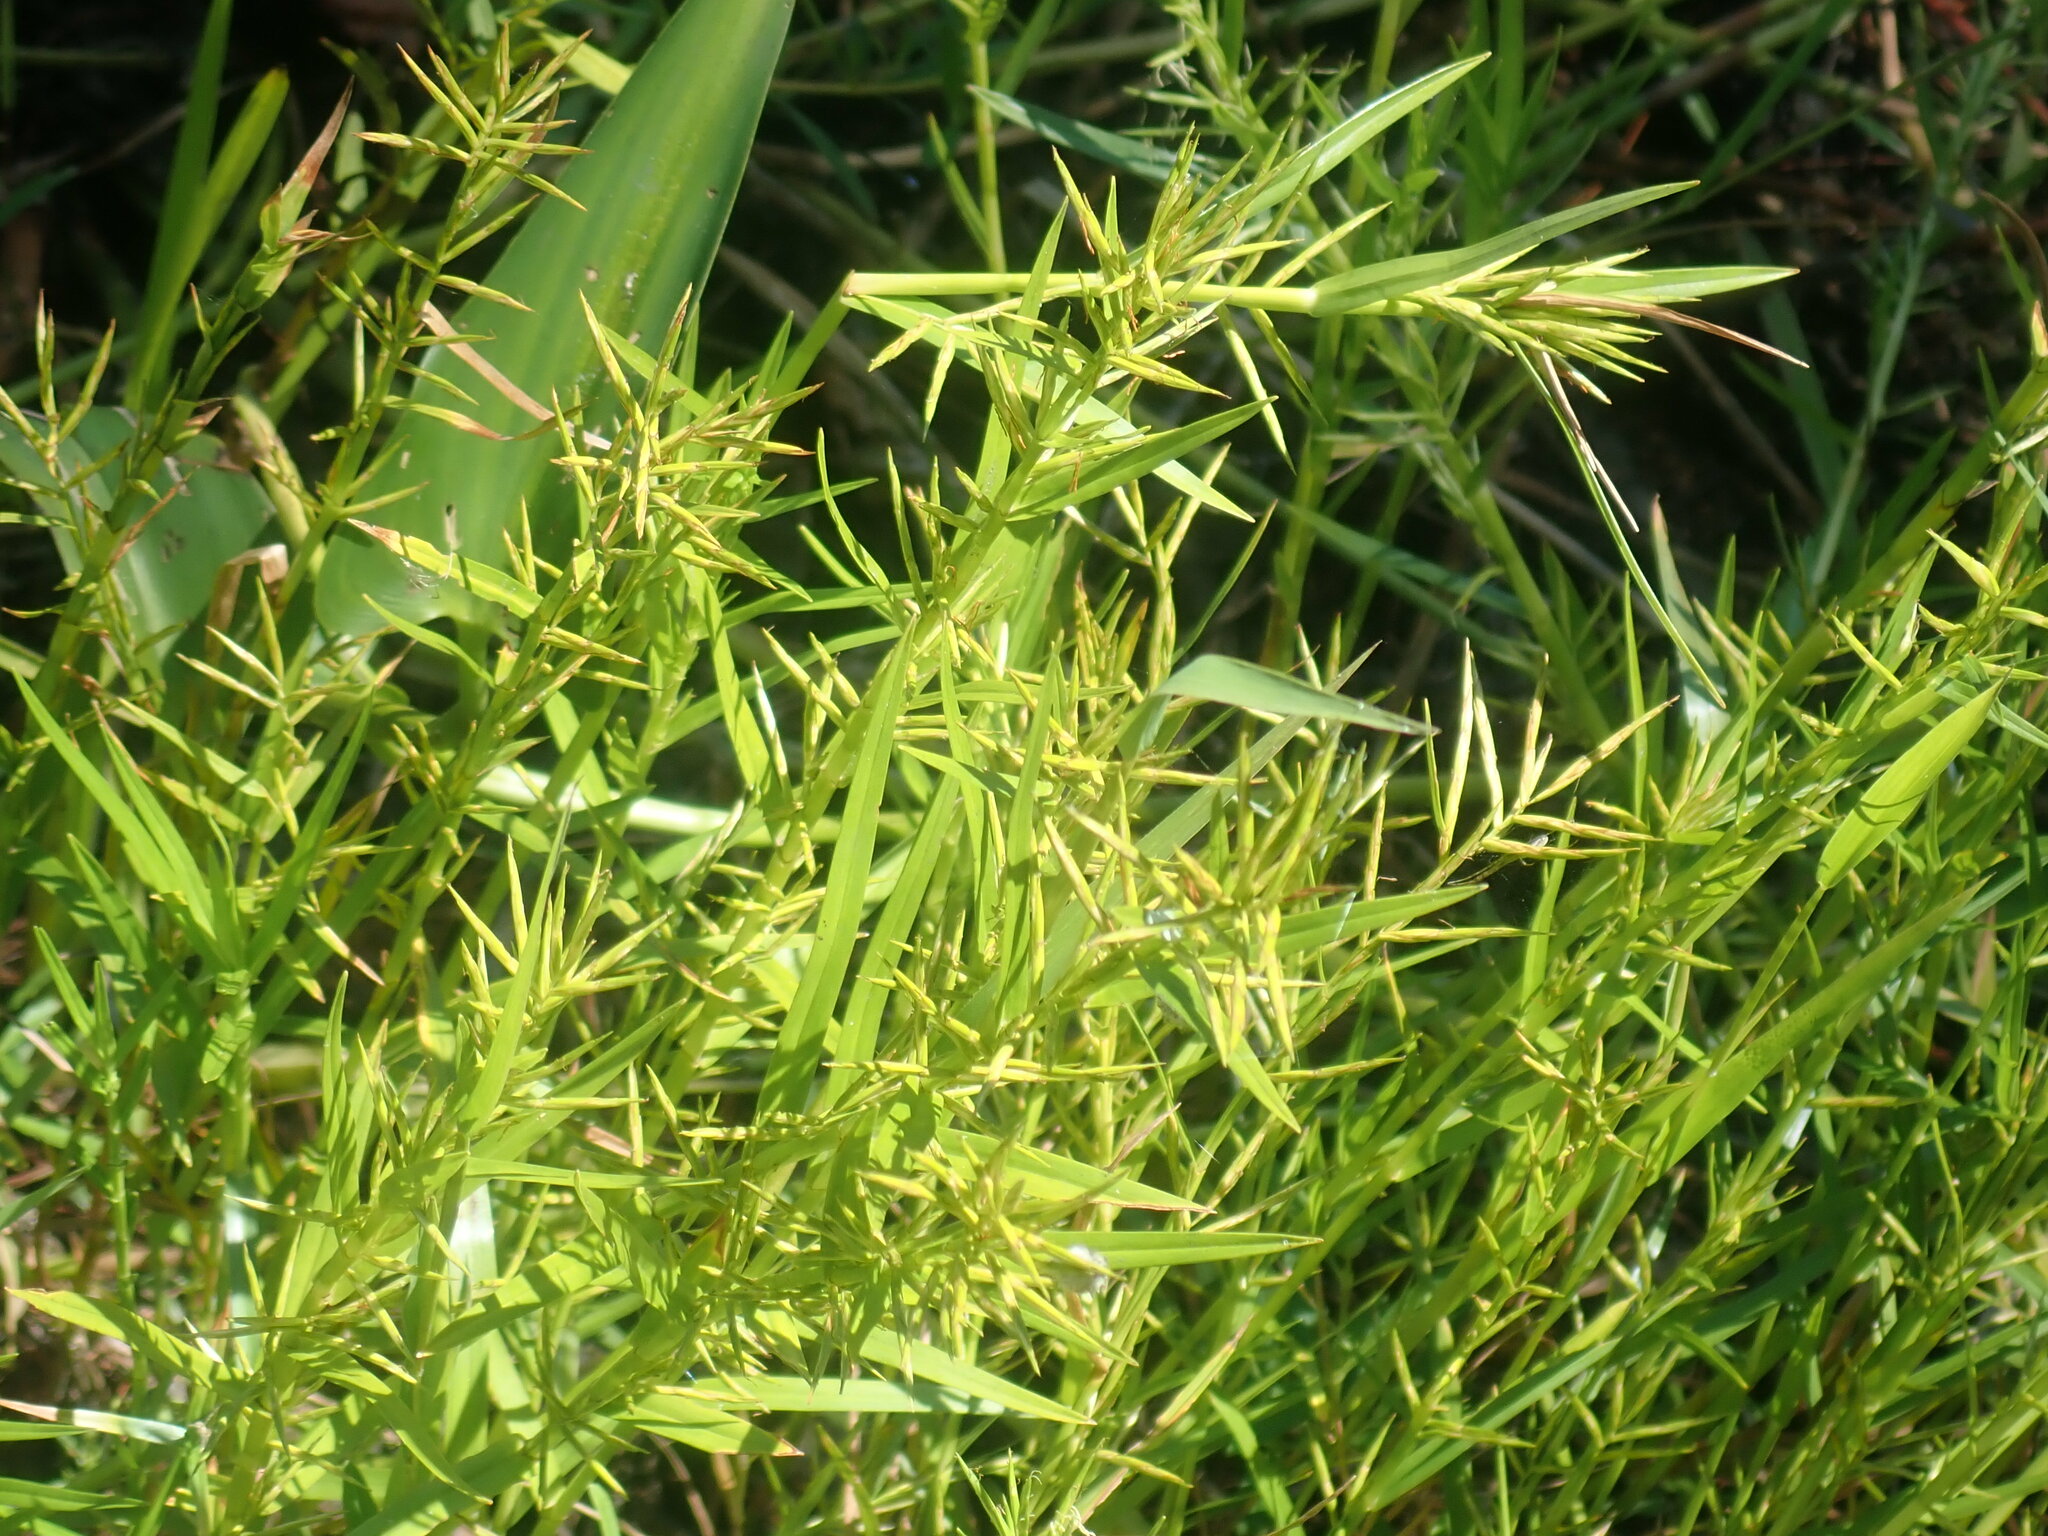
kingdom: Plantae
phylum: Tracheophyta
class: Liliopsida
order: Poales
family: Cyperaceae
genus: Dulichium
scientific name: Dulichium arundinaceum
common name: Three-way sedge
